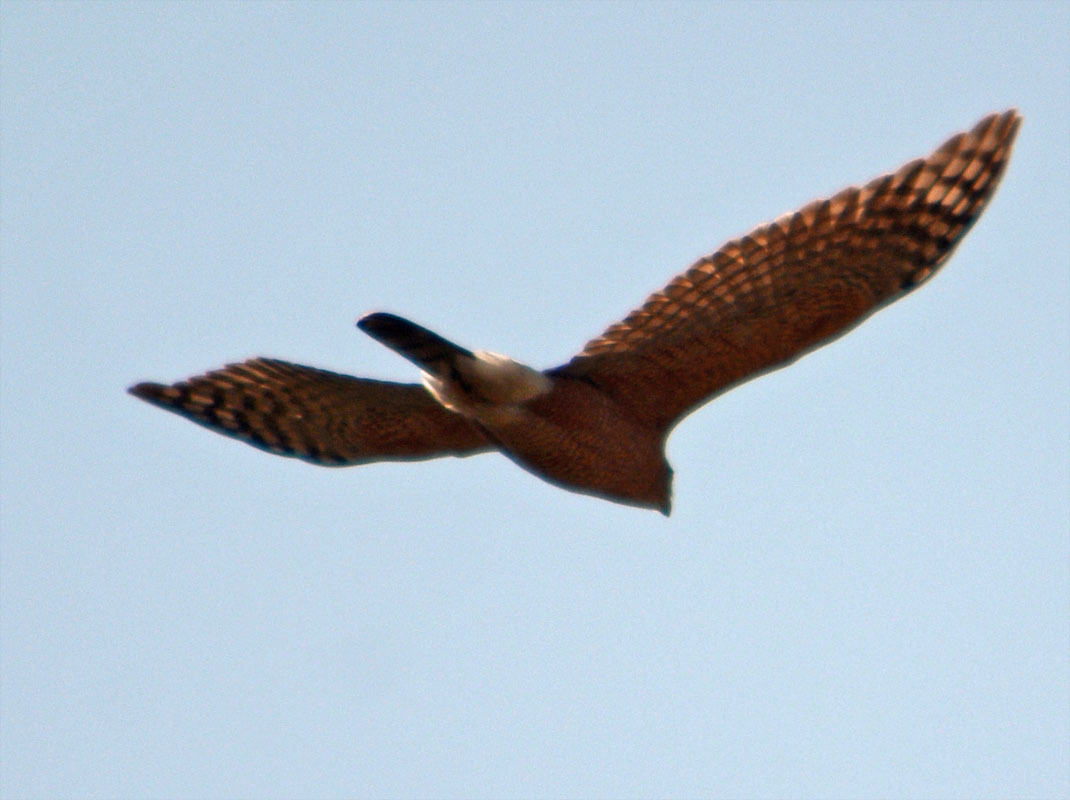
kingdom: Animalia
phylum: Chordata
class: Aves
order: Accipitriformes
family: Accipitridae
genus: Accipiter
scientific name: Accipiter cooperii
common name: Cooper's hawk
